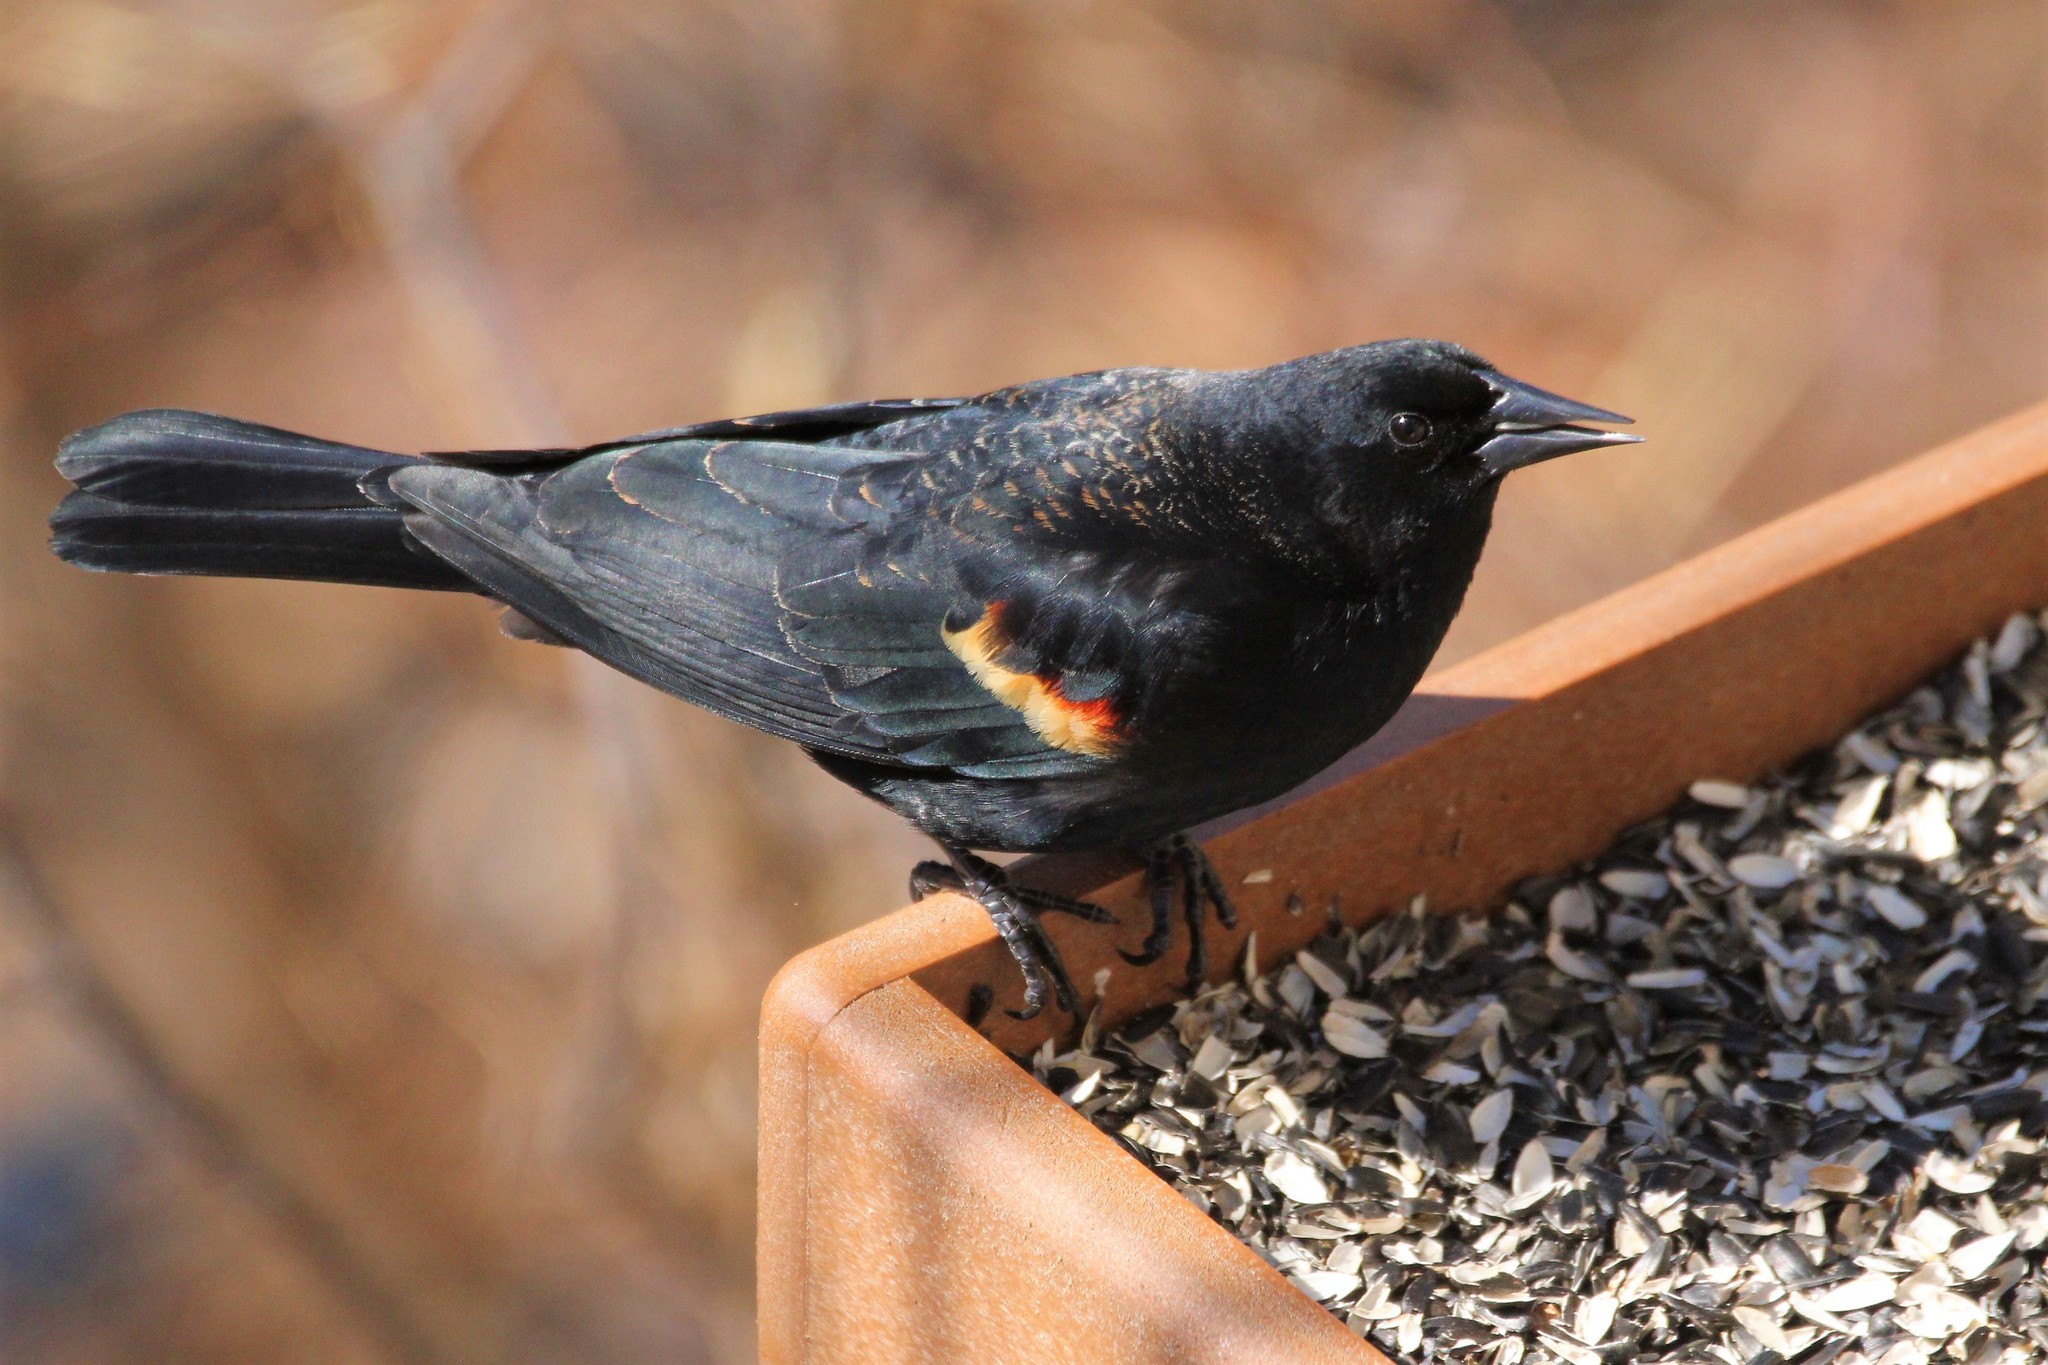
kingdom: Animalia
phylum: Chordata
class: Aves
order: Passeriformes
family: Icteridae
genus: Agelaius
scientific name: Agelaius phoeniceus
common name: Red-winged blackbird
